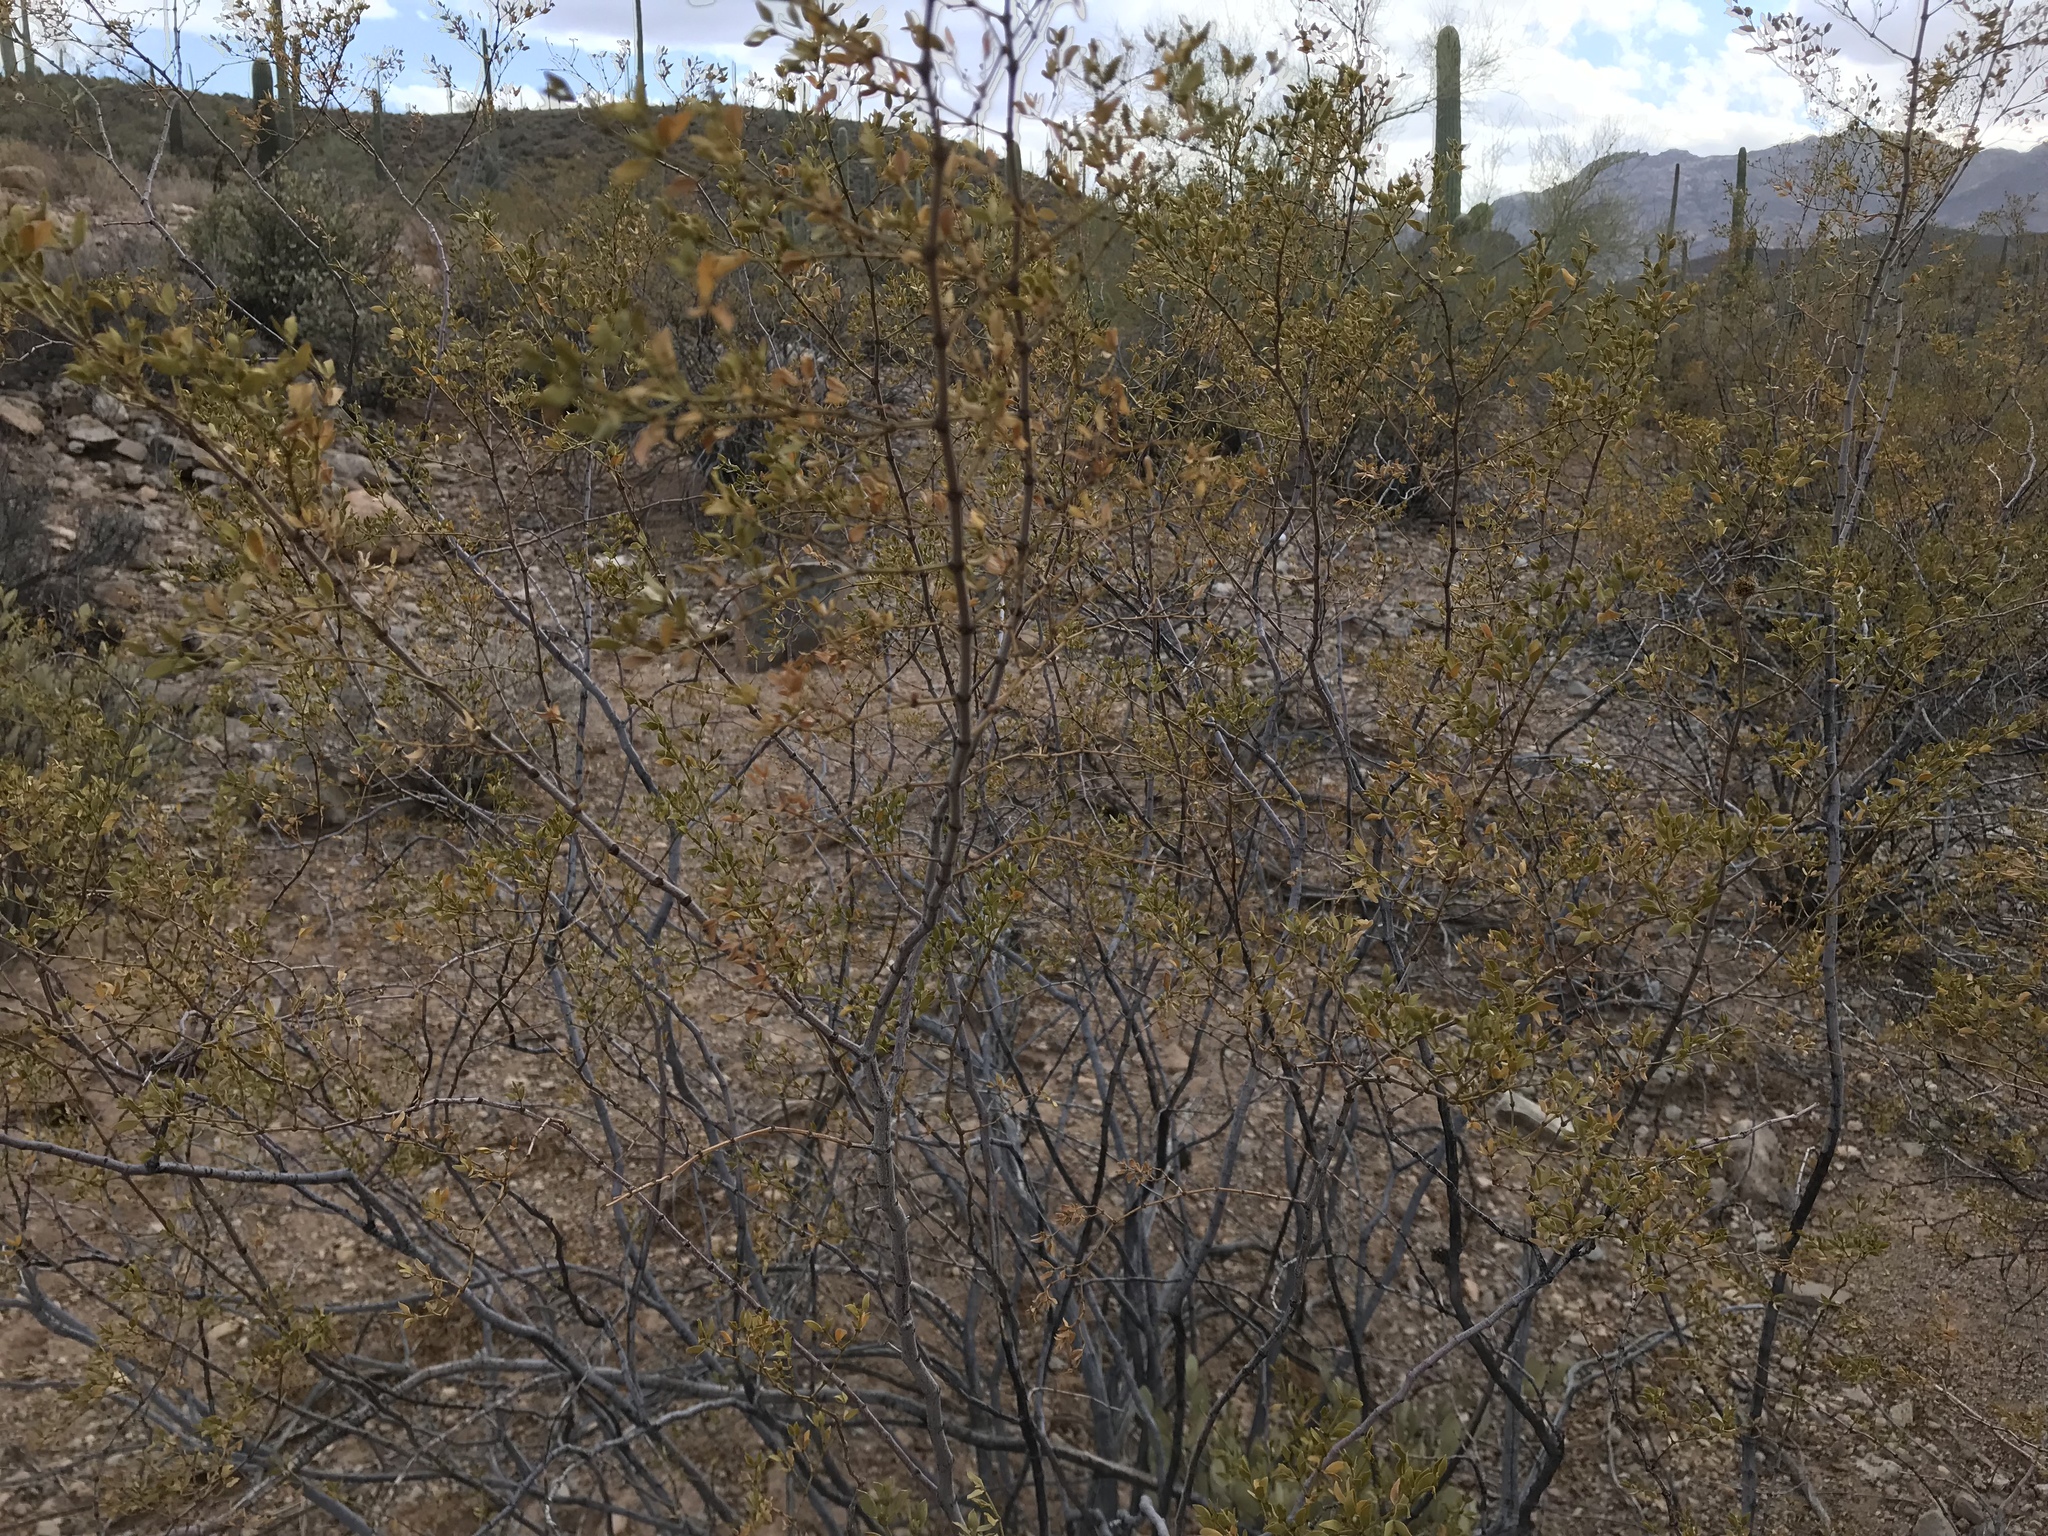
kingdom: Plantae
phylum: Tracheophyta
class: Magnoliopsida
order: Zygophyllales
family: Zygophyllaceae
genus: Larrea
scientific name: Larrea tridentata
